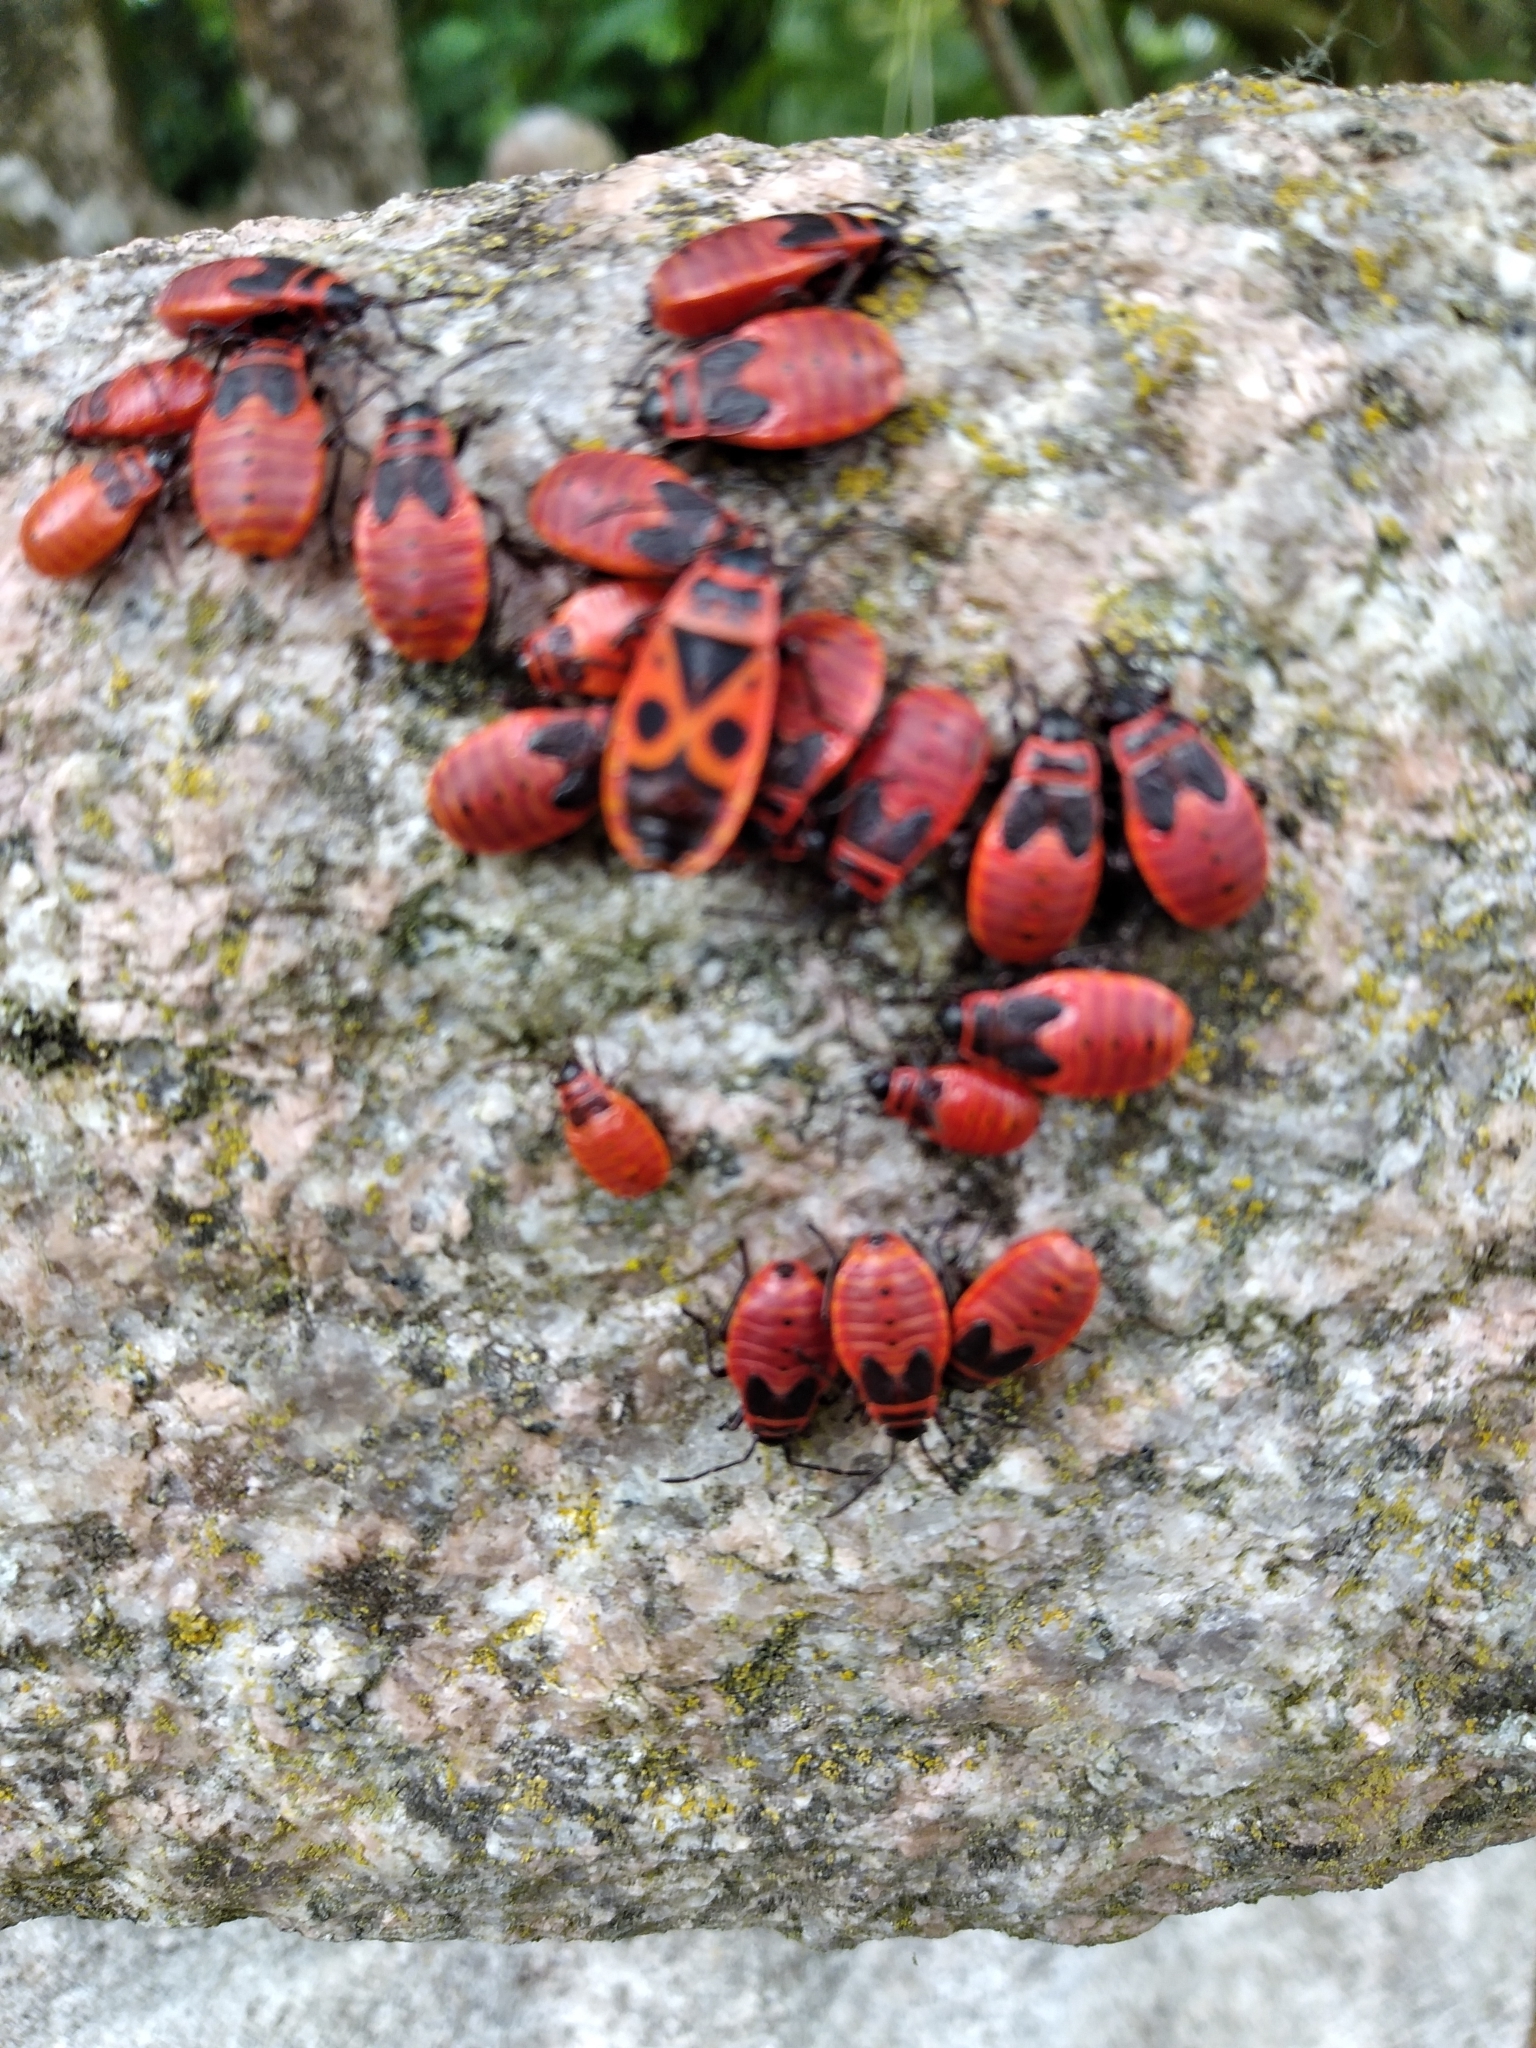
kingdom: Animalia
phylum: Arthropoda
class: Insecta
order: Hemiptera
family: Pyrrhocoridae
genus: Pyrrhocoris
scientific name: Pyrrhocoris apterus
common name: Firebug
